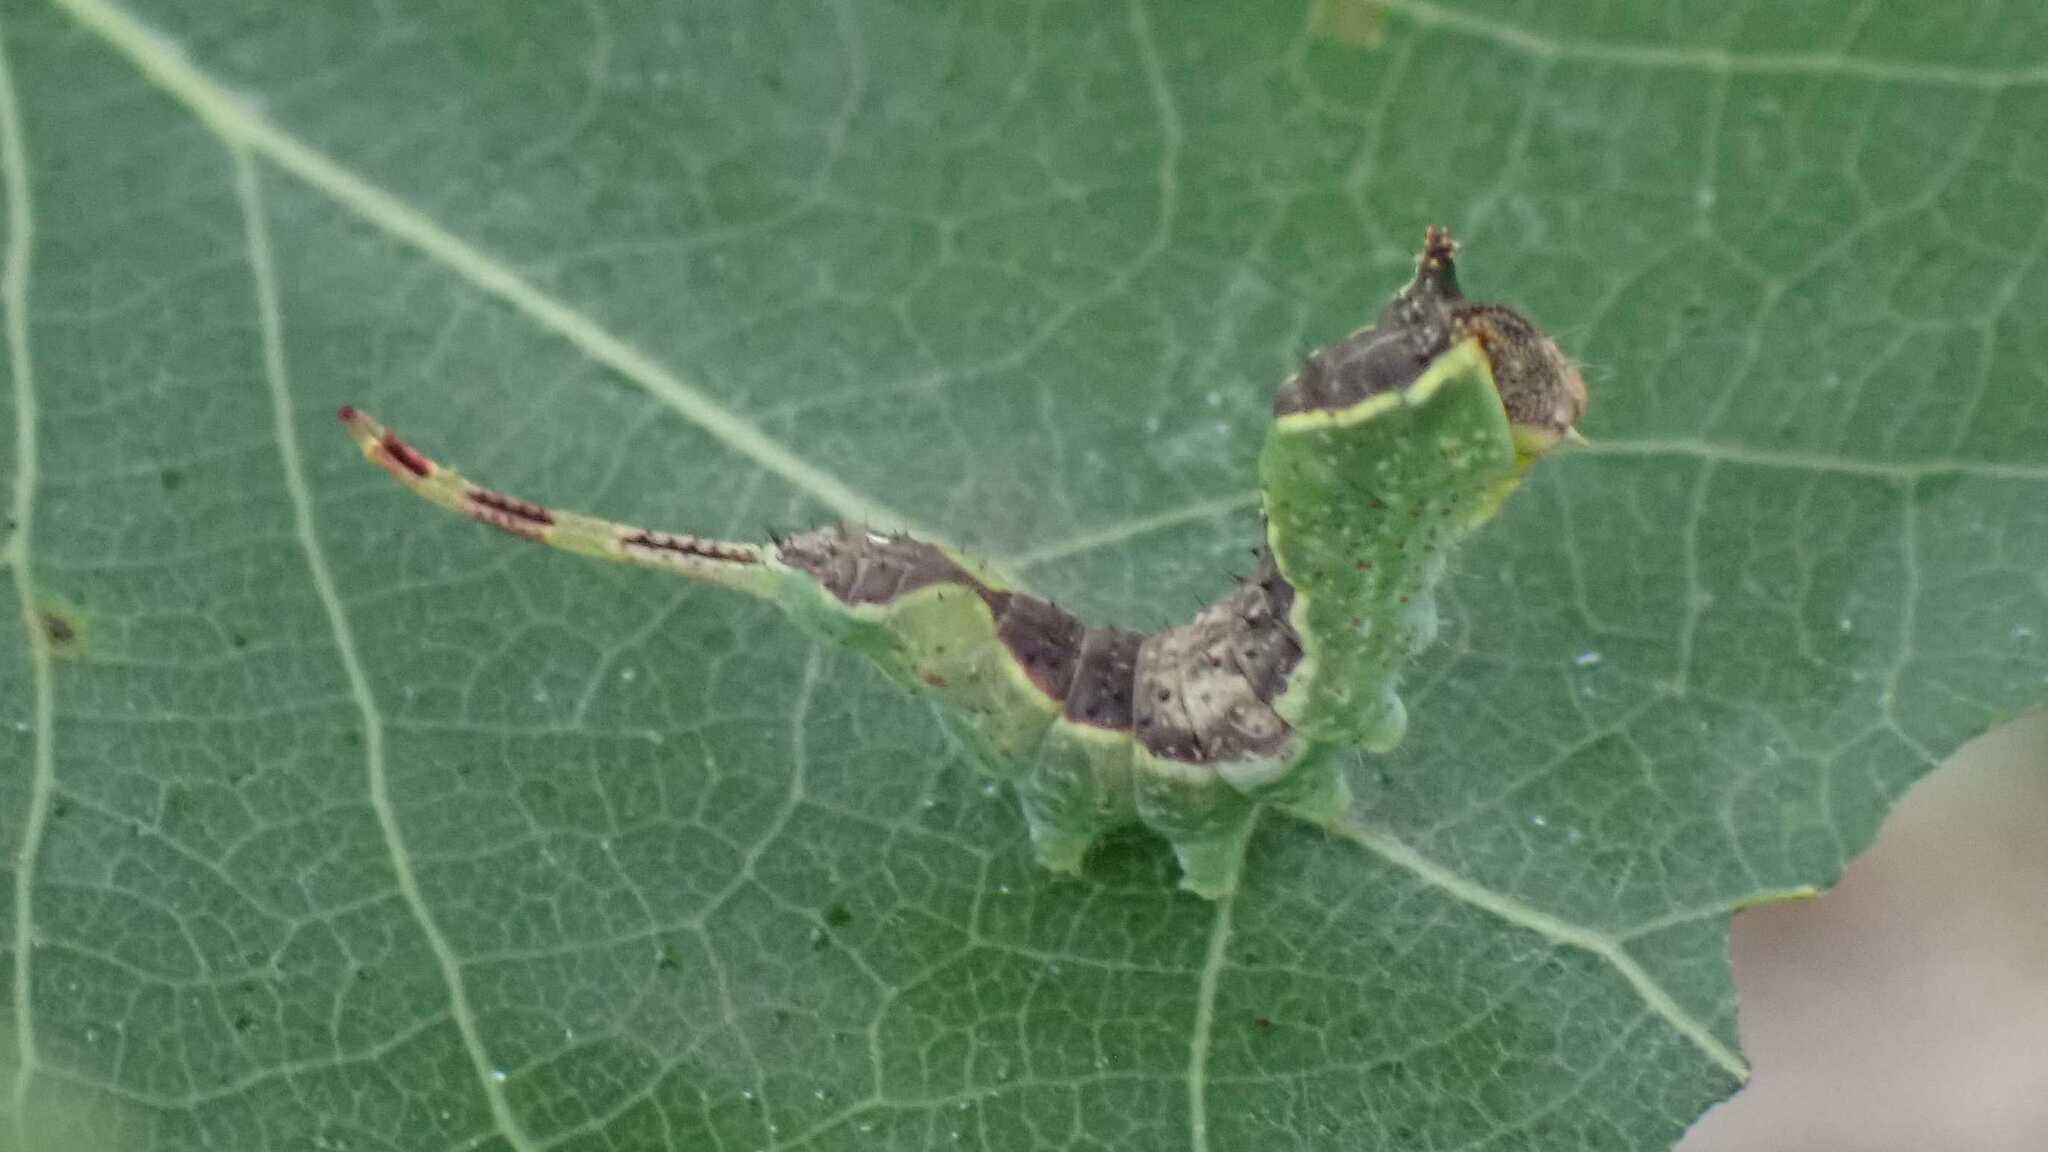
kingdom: Animalia
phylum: Arthropoda
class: Insecta
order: Lepidoptera
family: Notodontidae
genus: Furcula
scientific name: Furcula bifida
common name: Poplar kitten
